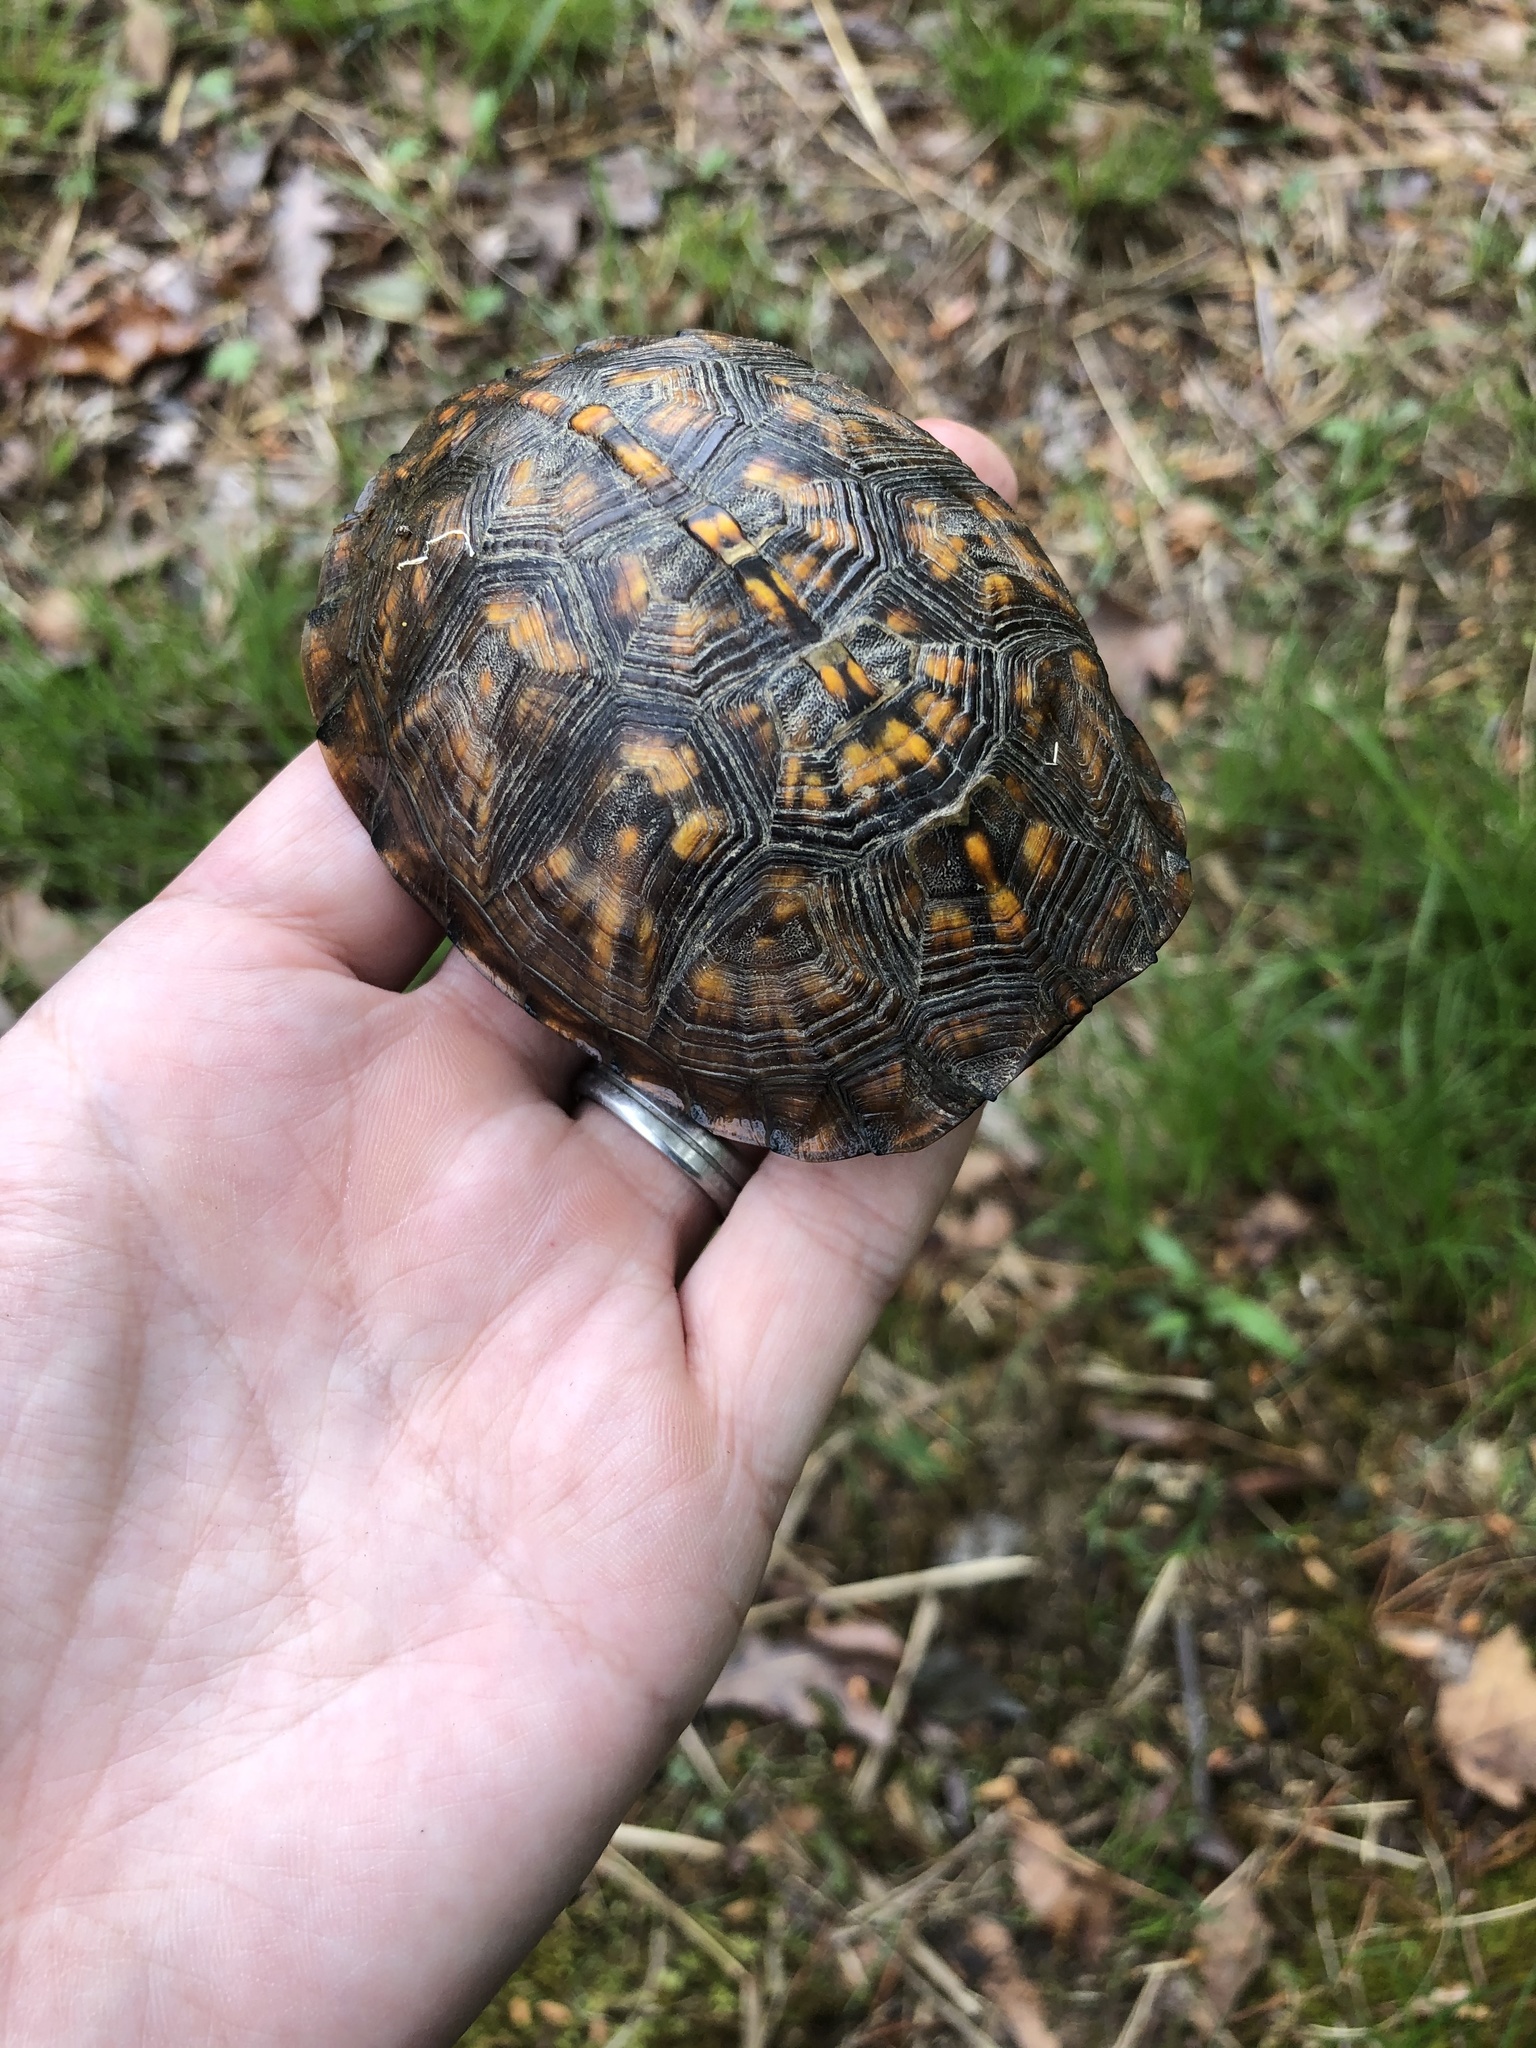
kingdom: Animalia
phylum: Chordata
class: Testudines
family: Emydidae
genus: Terrapene
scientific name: Terrapene carolina
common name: Common box turtle
